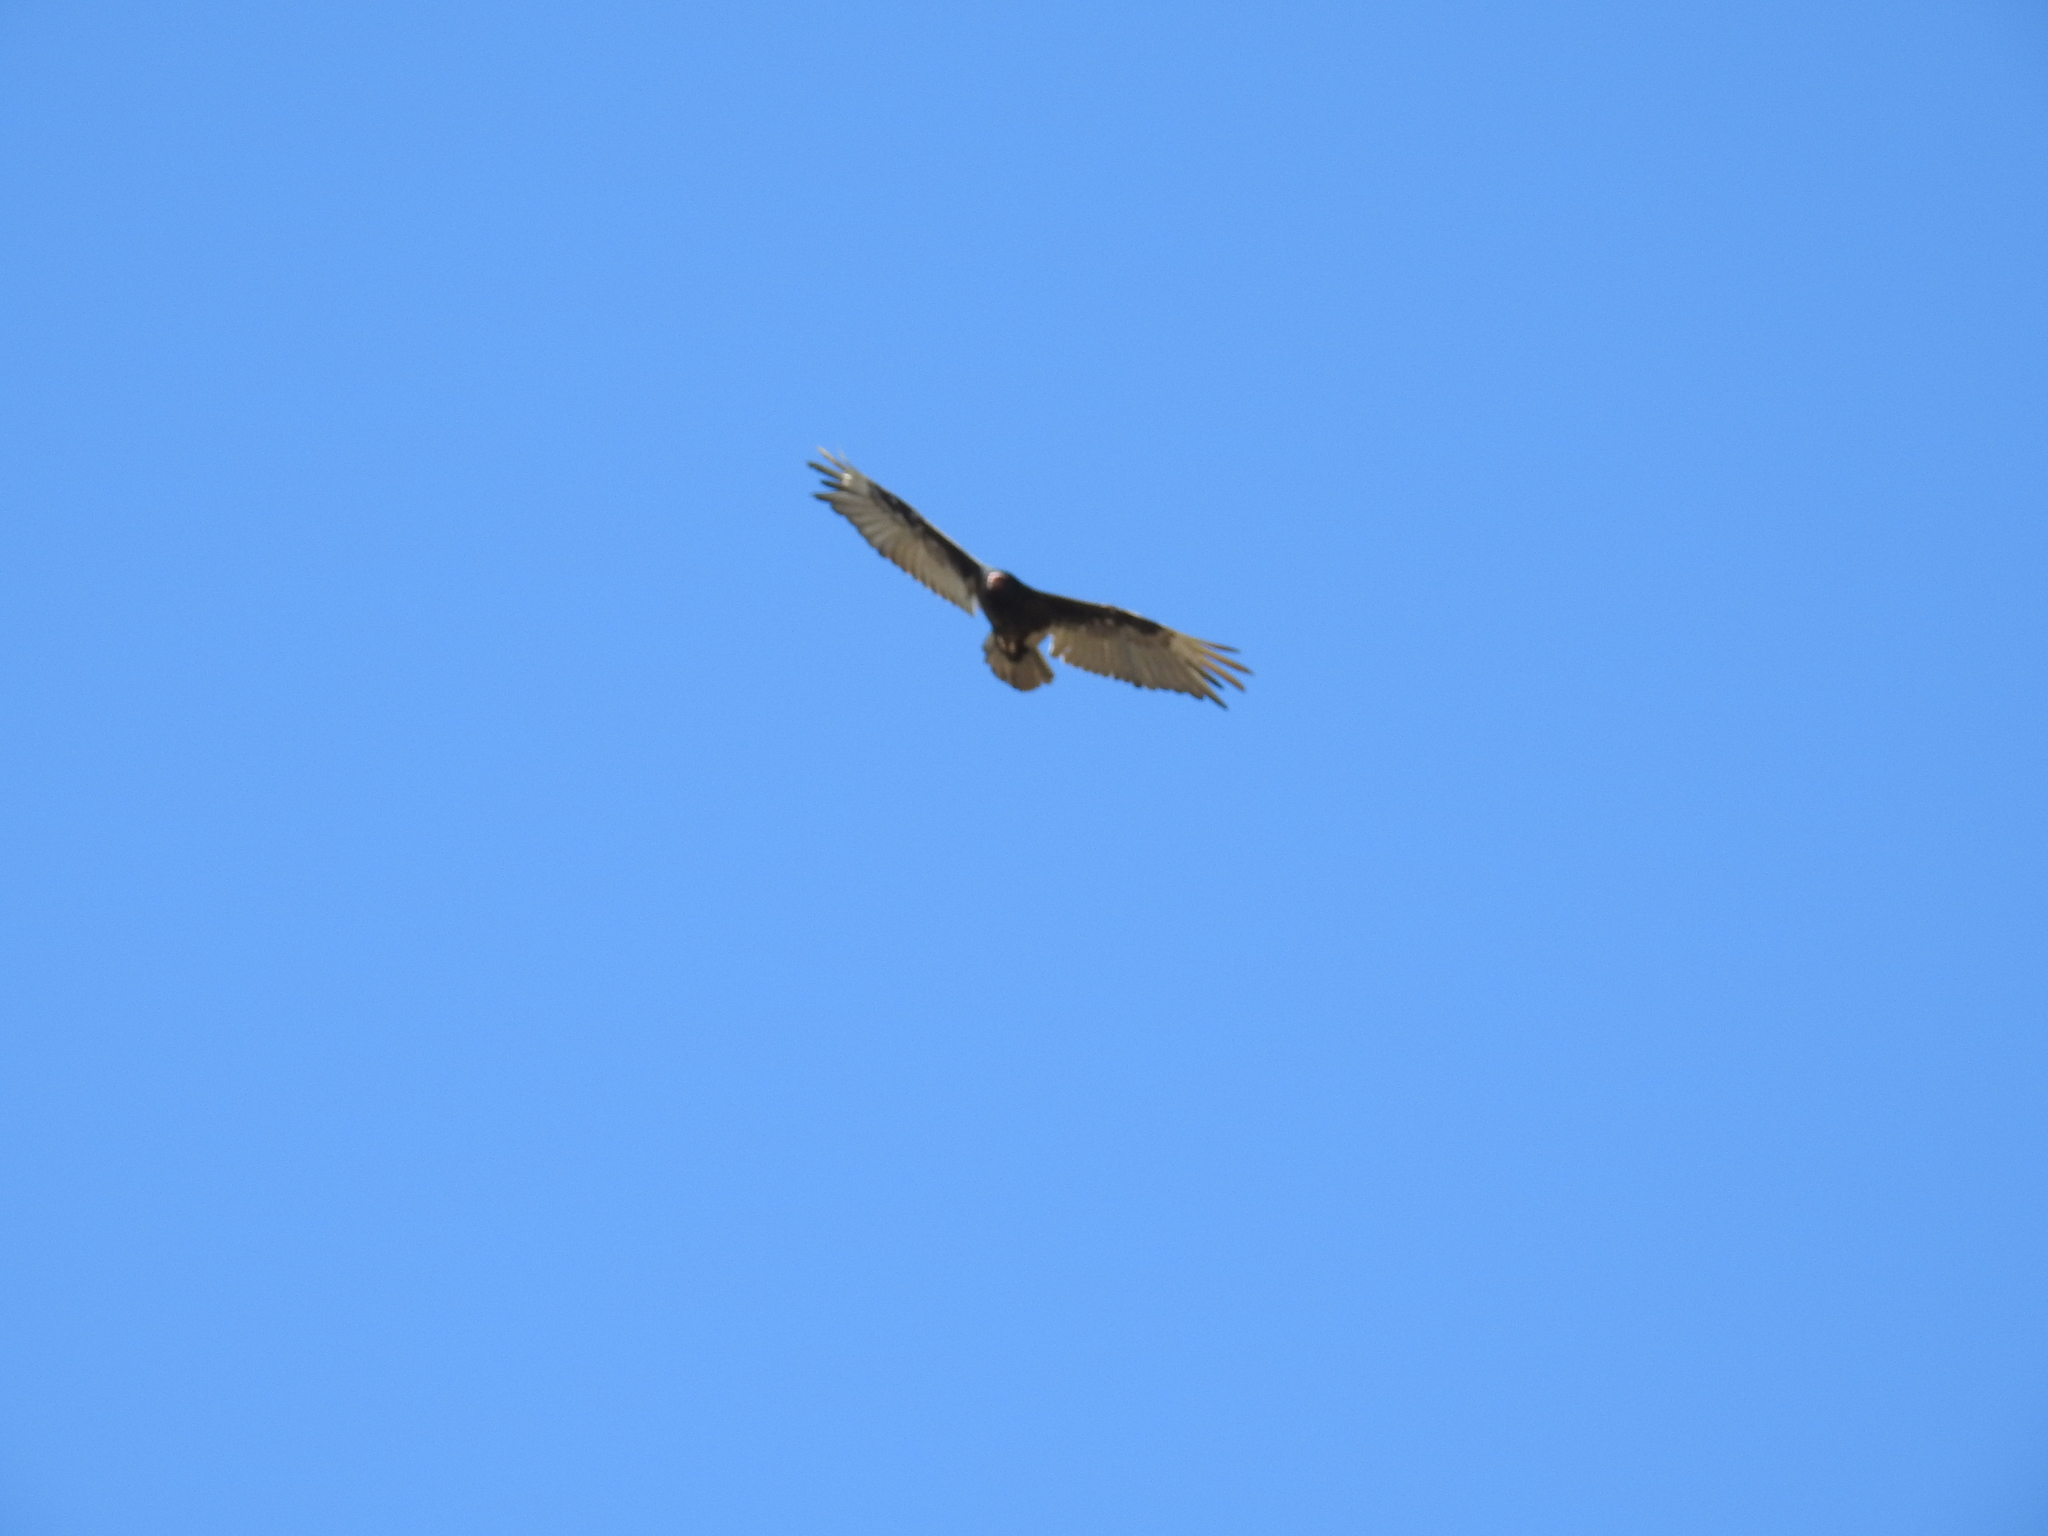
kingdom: Animalia
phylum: Chordata
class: Aves
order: Accipitriformes
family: Cathartidae
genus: Cathartes
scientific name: Cathartes aura
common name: Turkey vulture
